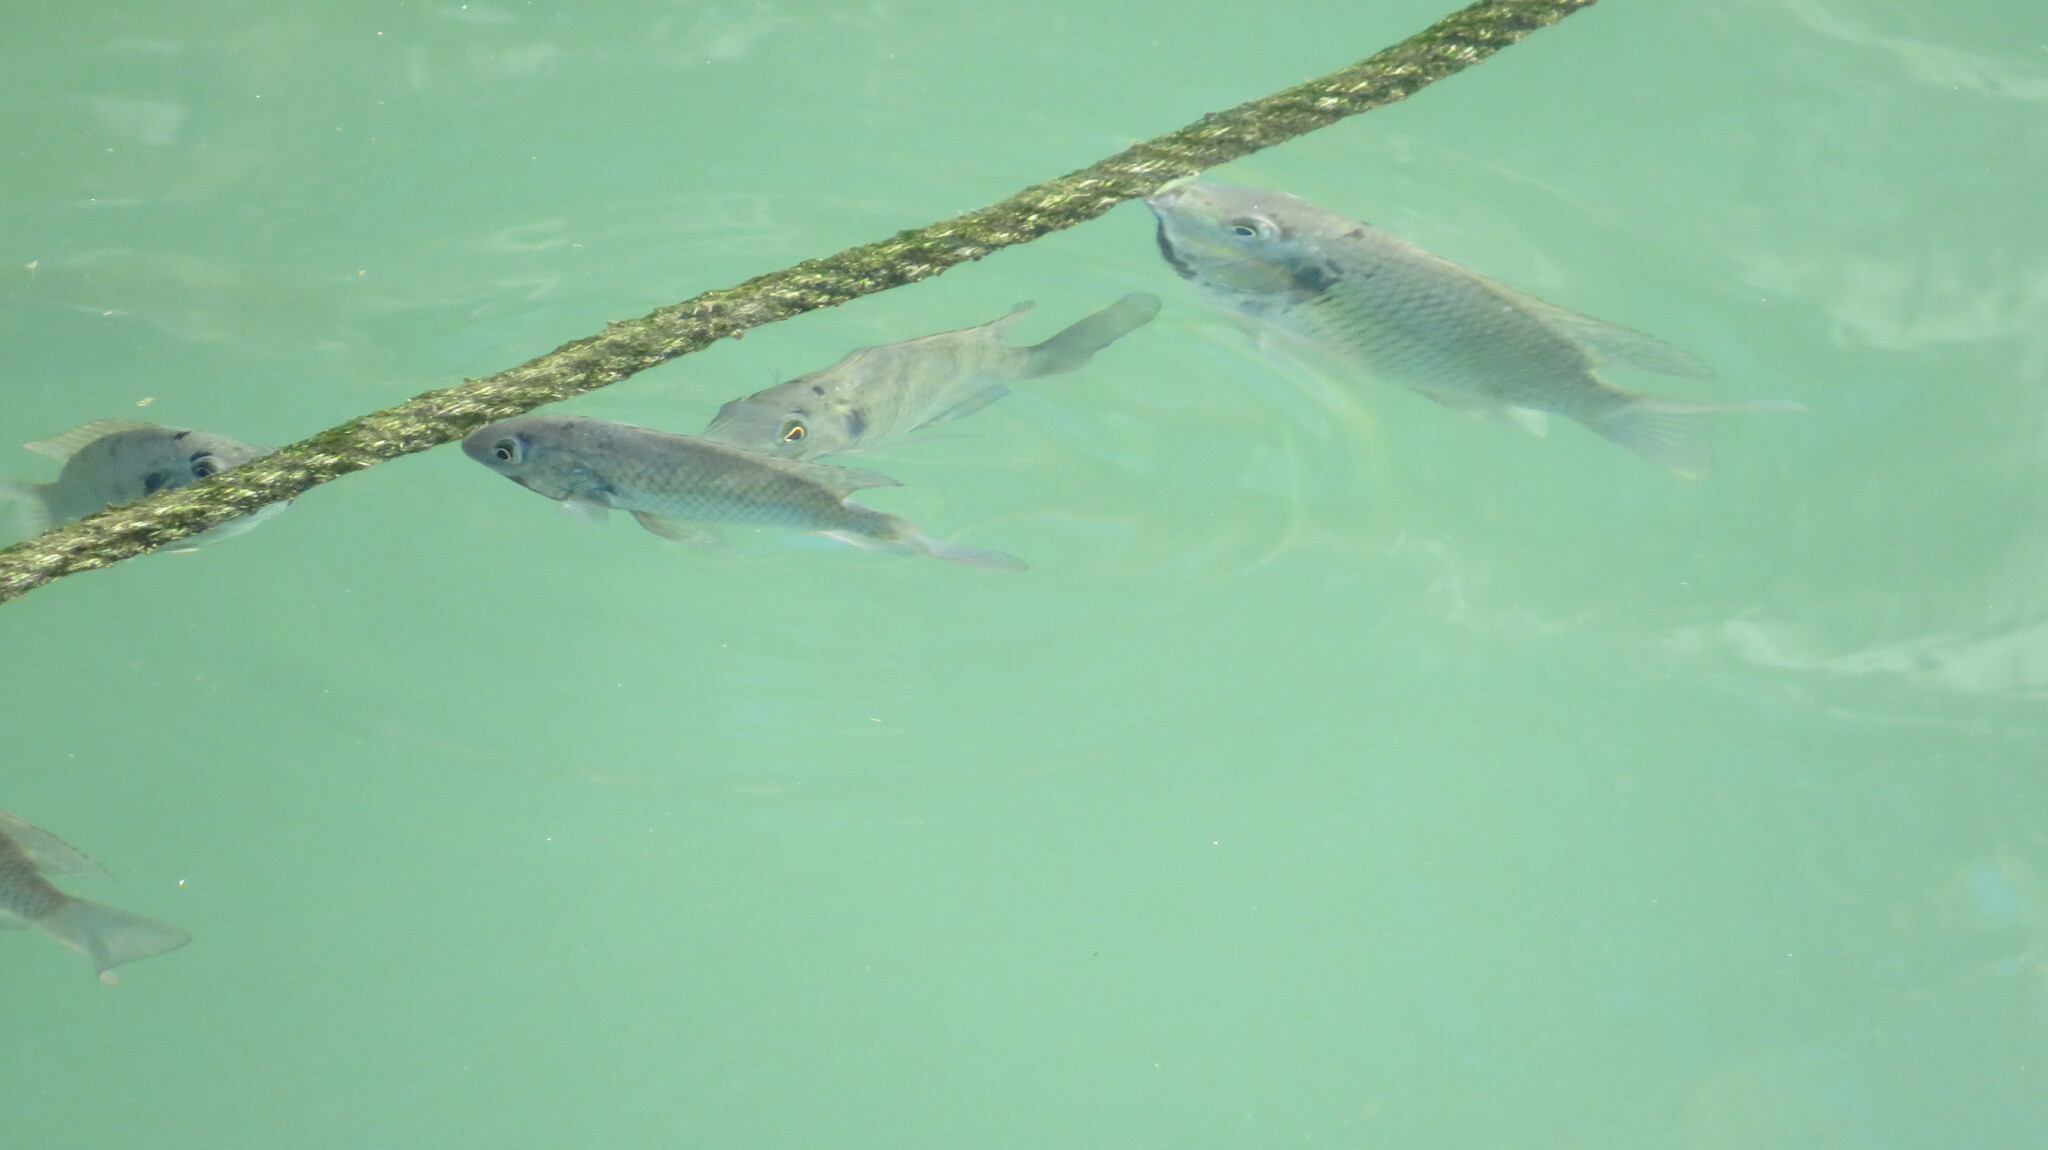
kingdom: Animalia
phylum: Chordata
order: Perciformes
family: Cichlidae
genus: Sarotherodon
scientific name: Sarotherodon melanotheron
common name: Blackchin tilapia
